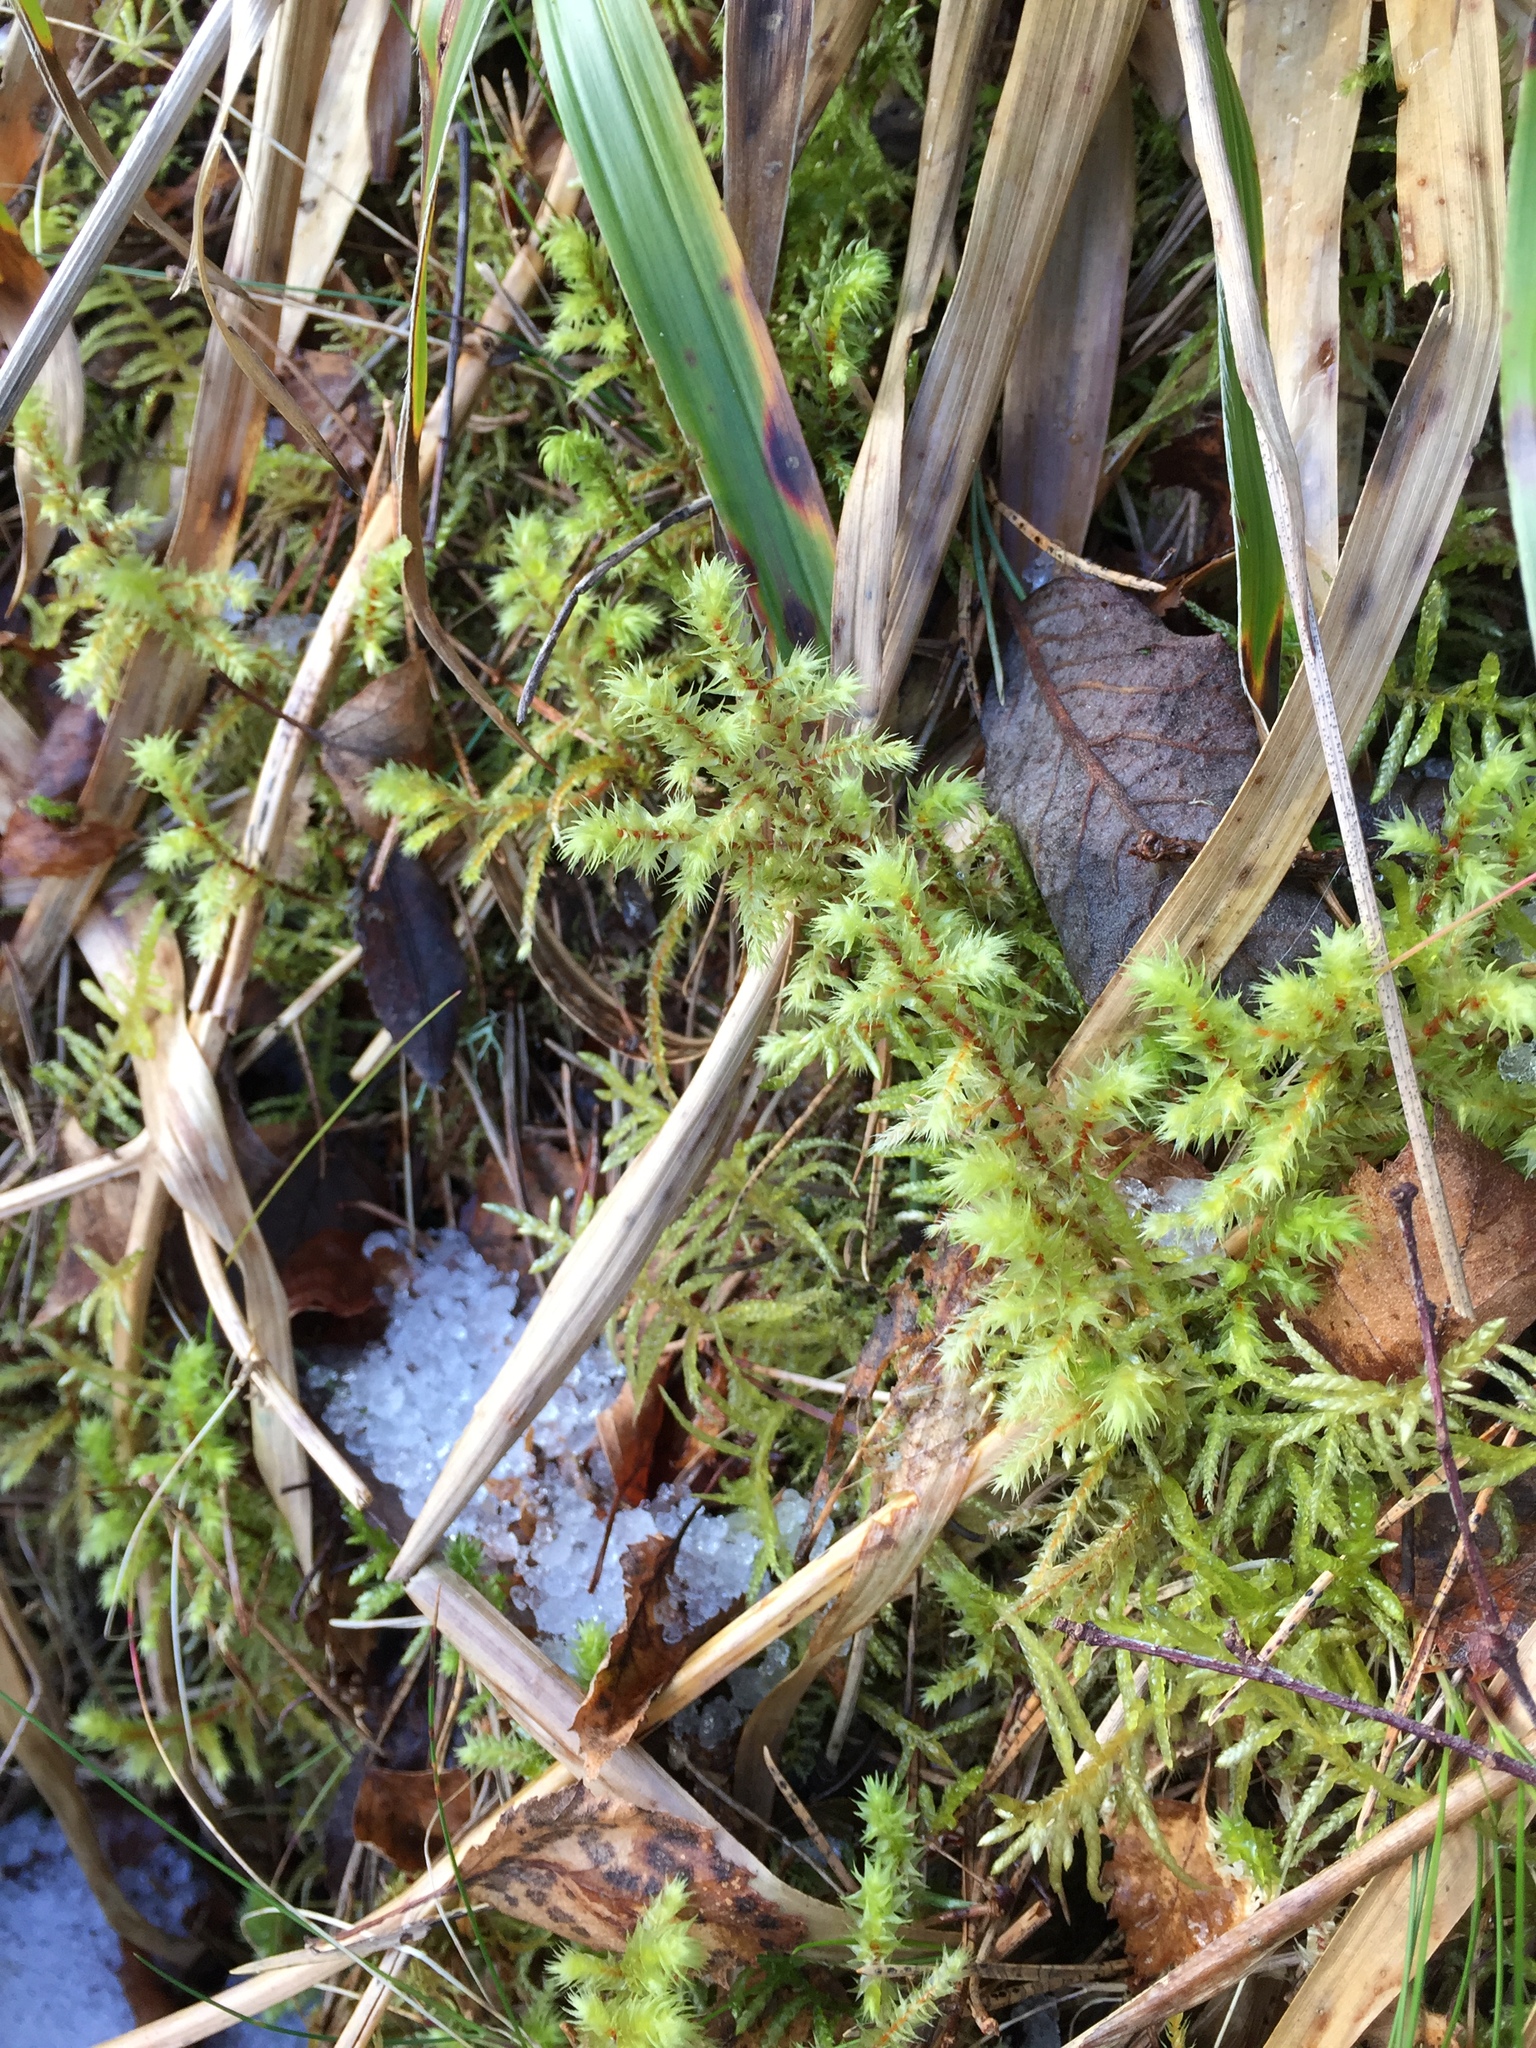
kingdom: Plantae
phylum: Bryophyta
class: Bryopsida
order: Hypnales
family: Hylocomiaceae
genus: Hylocomiadelphus
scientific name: Hylocomiadelphus triquetrus
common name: Rough goose neck moss
